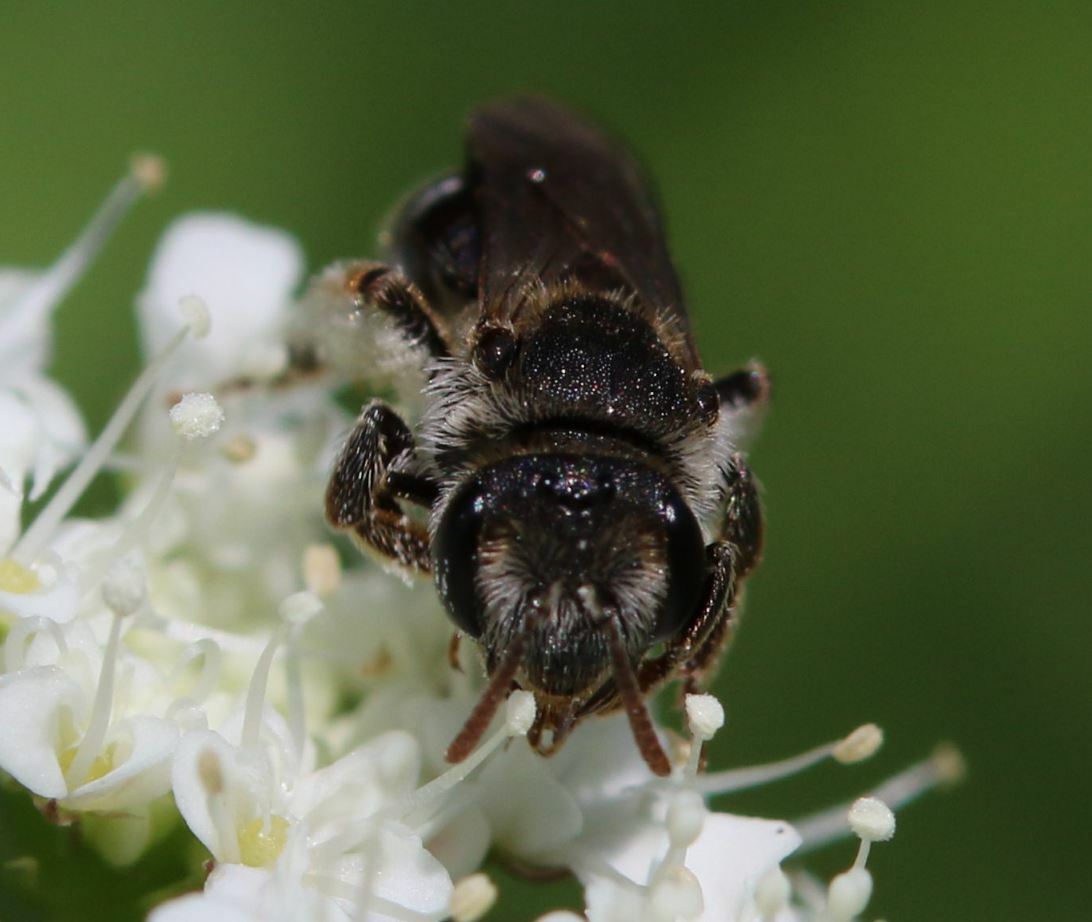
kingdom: Animalia
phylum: Arthropoda
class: Insecta
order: Hymenoptera
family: Andrenidae
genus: Andrena
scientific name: Andrena colletiformis
